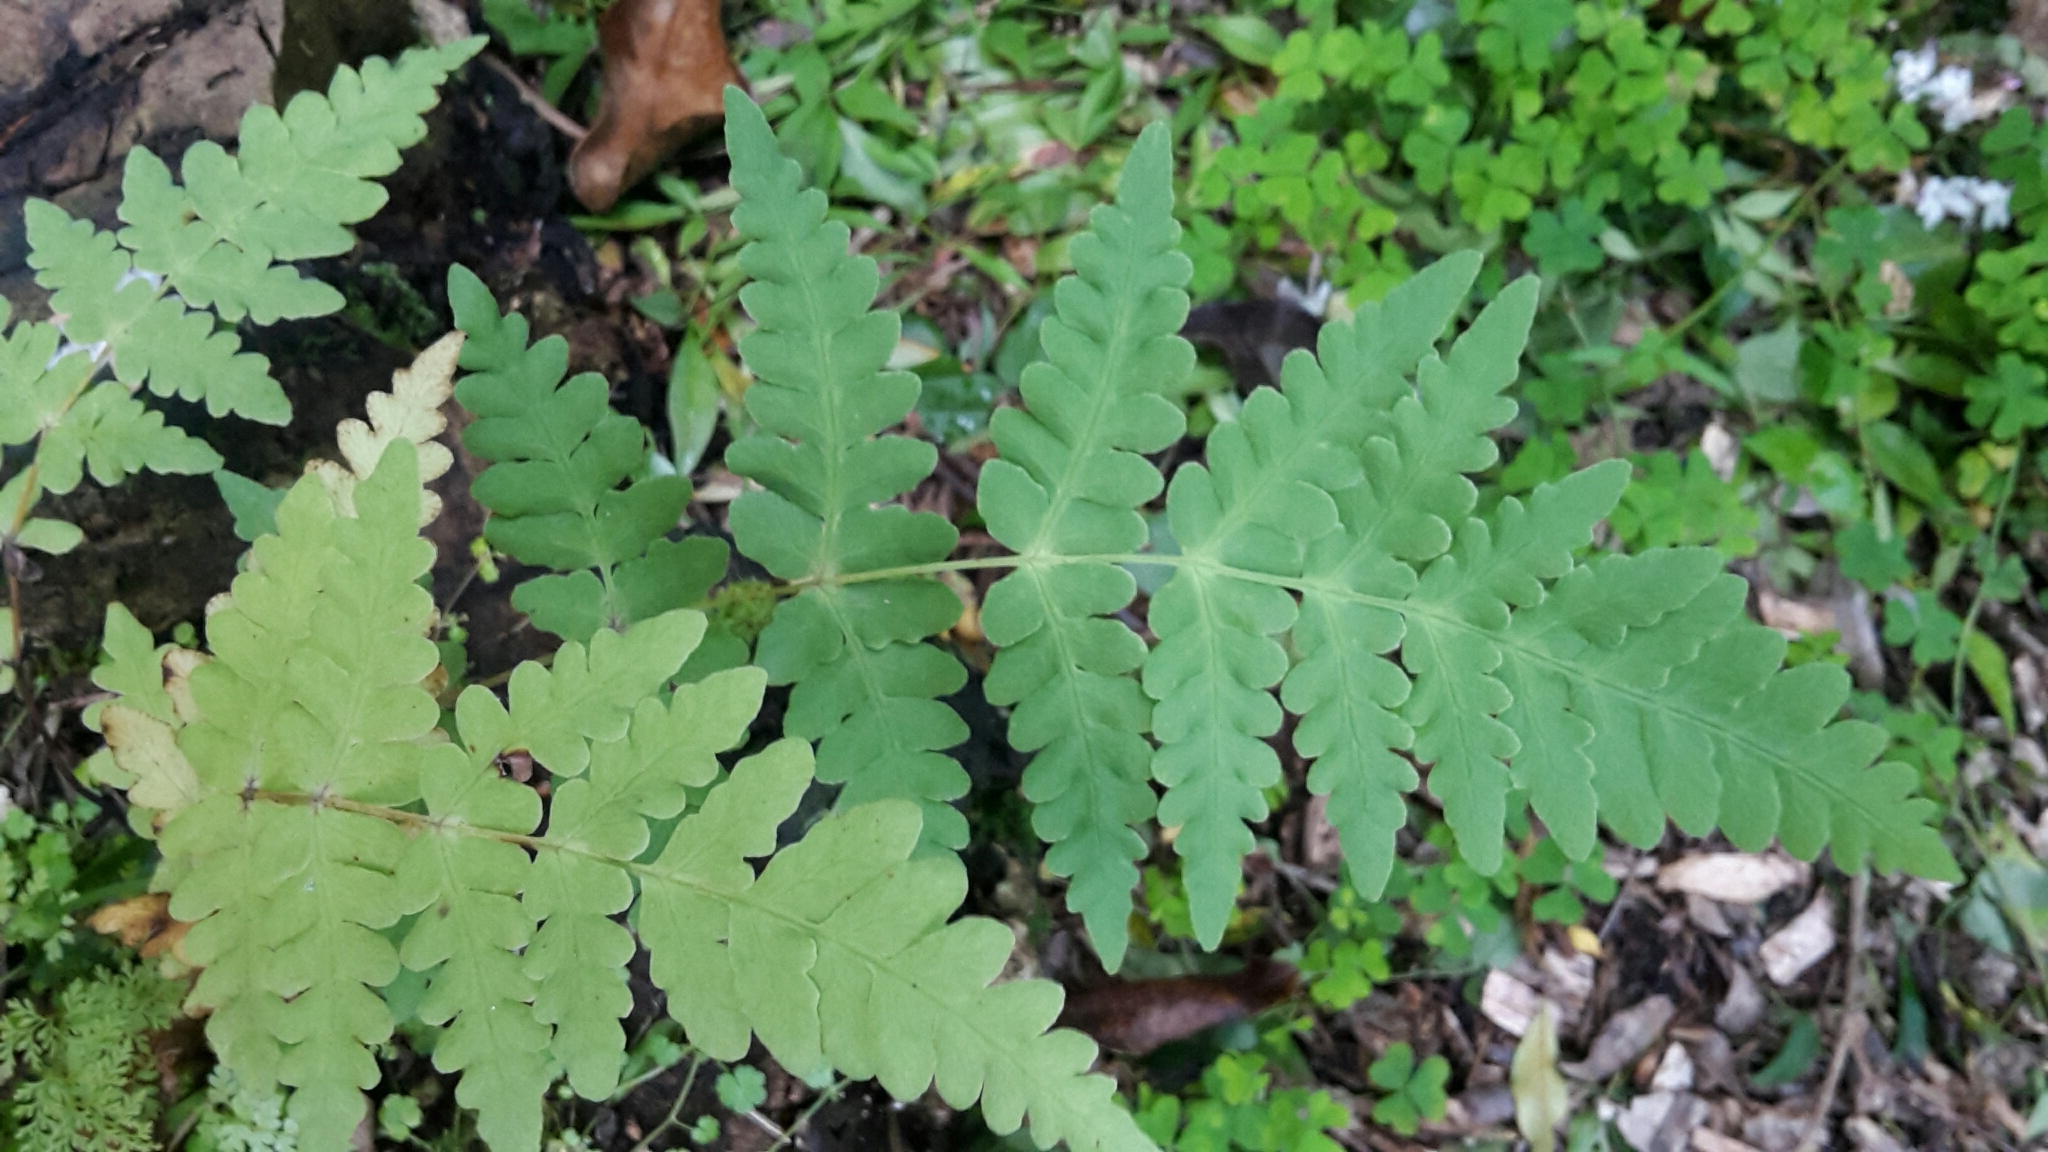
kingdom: Plantae
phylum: Tracheophyta
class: Polypodiopsida
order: Polypodiales
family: Dennstaedtiaceae
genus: Histiopteris
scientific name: Histiopteris incisa
